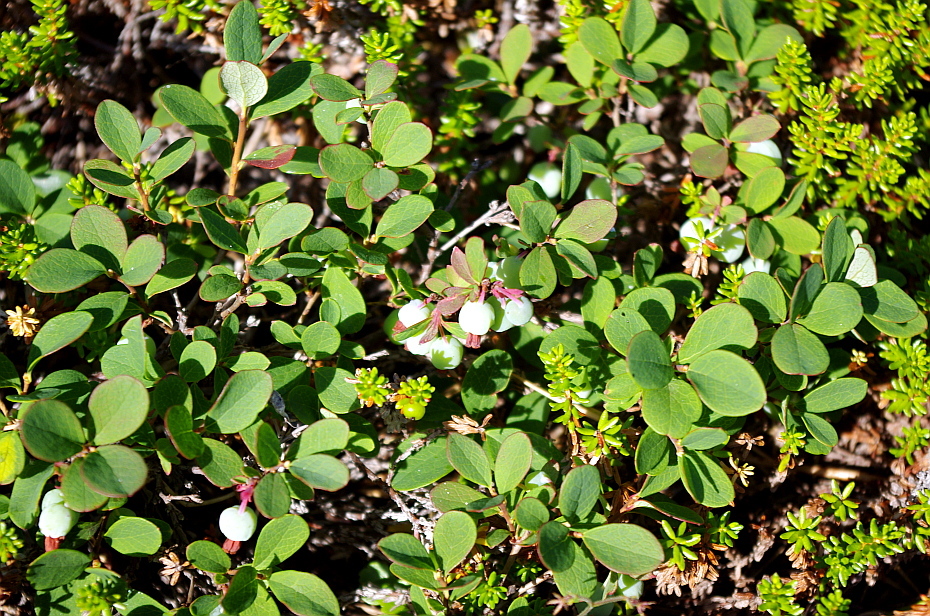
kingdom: Plantae
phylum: Tracheophyta
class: Magnoliopsida
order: Ericales
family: Ericaceae
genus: Vaccinium
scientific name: Vaccinium uliginosum
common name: Bog bilberry
